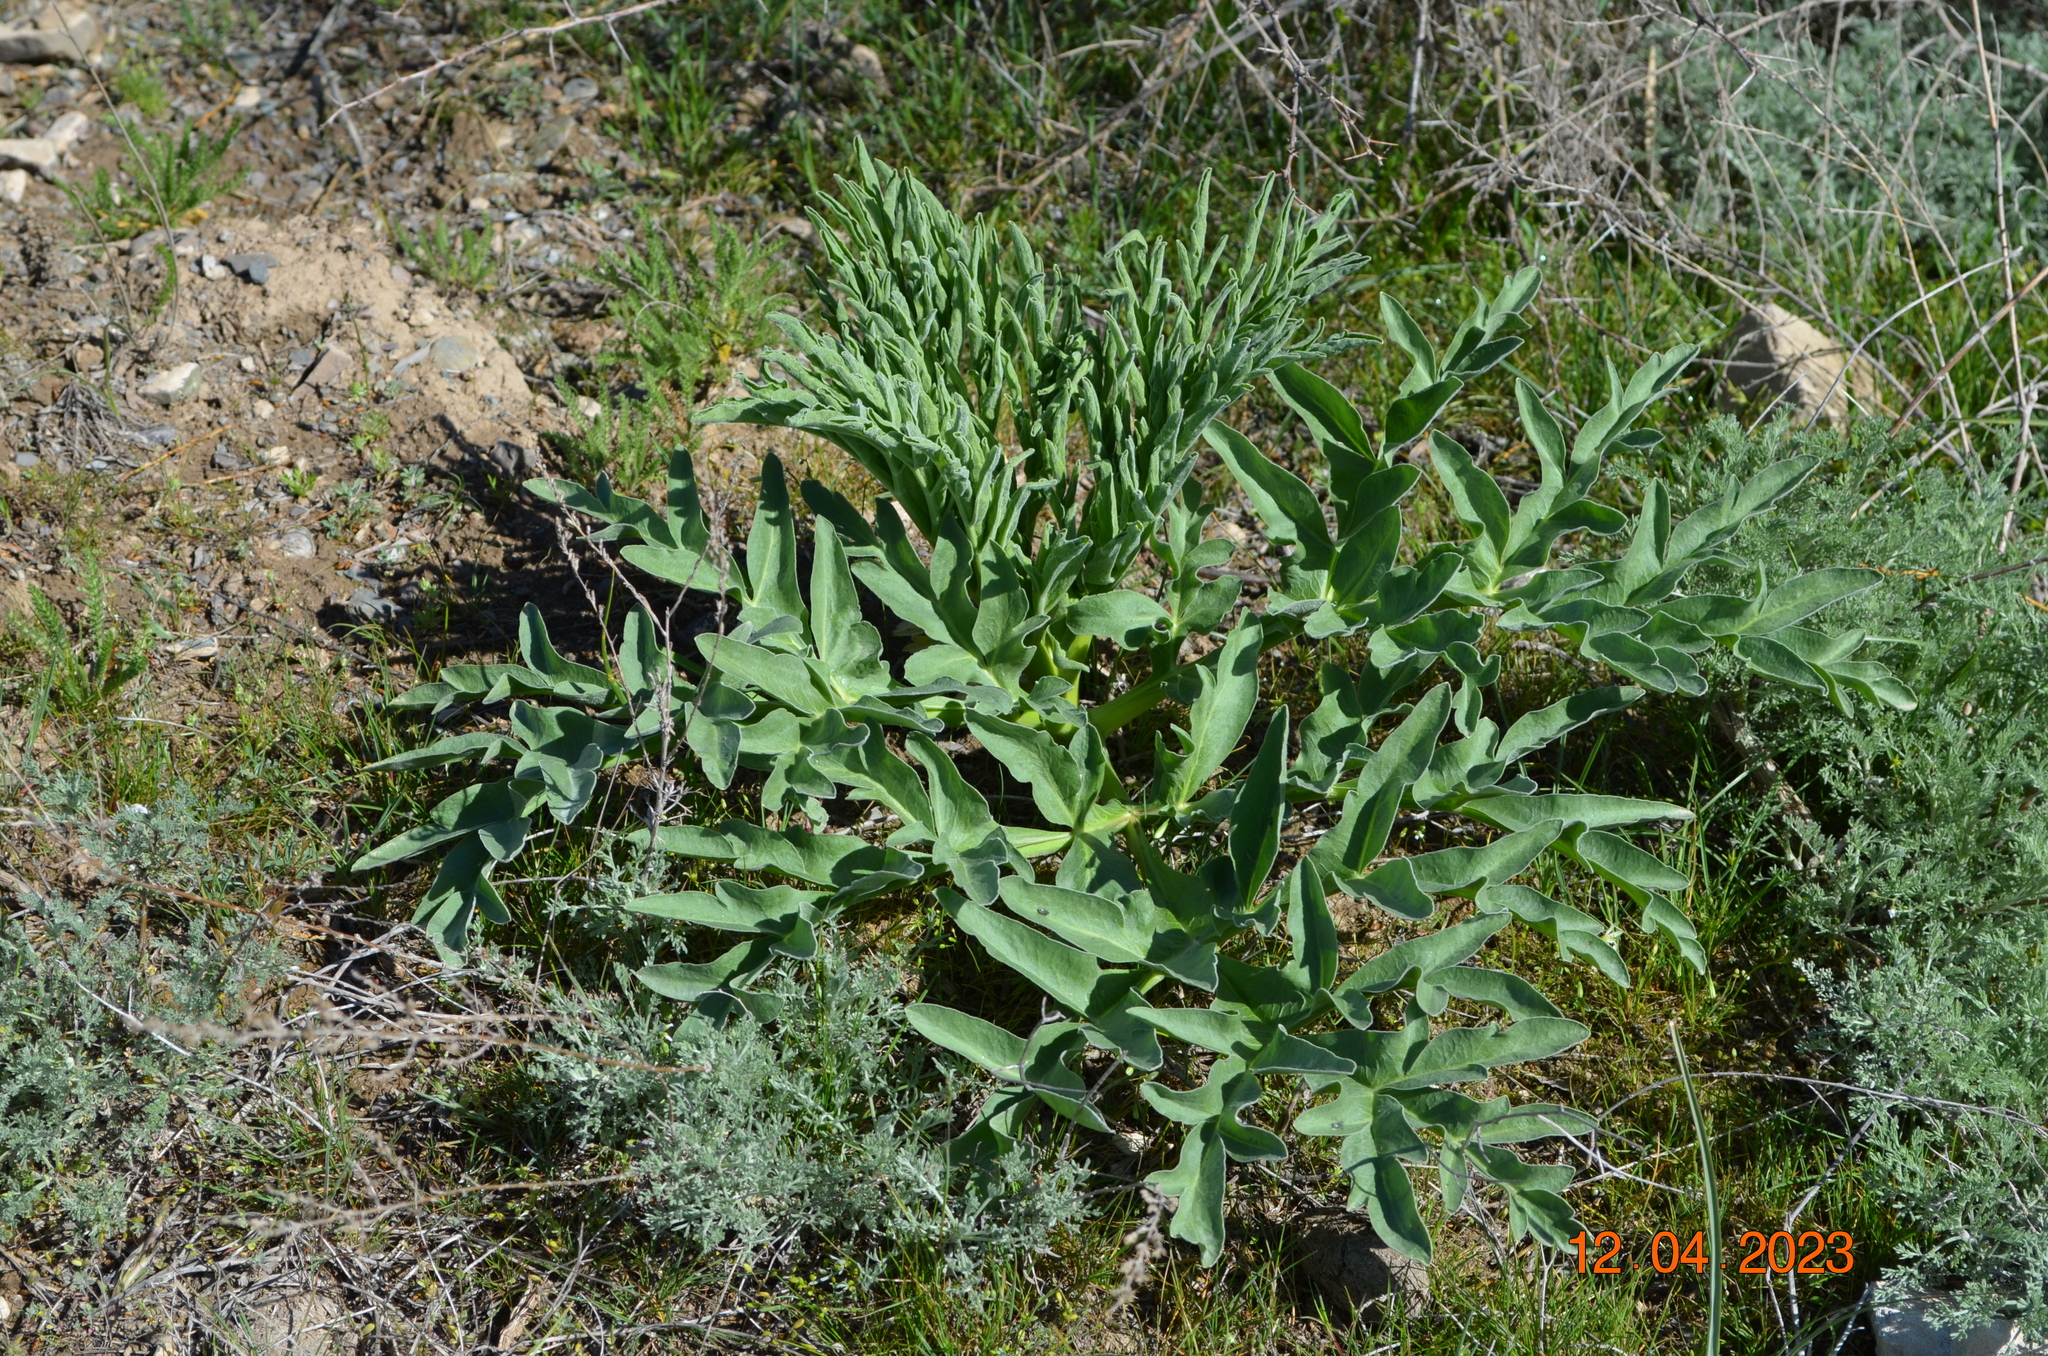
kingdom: Plantae
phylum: Tracheophyta
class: Magnoliopsida
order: Apiales
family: Apiaceae
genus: Ferula
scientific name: Ferula assa-foetida
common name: Assa-foetida
